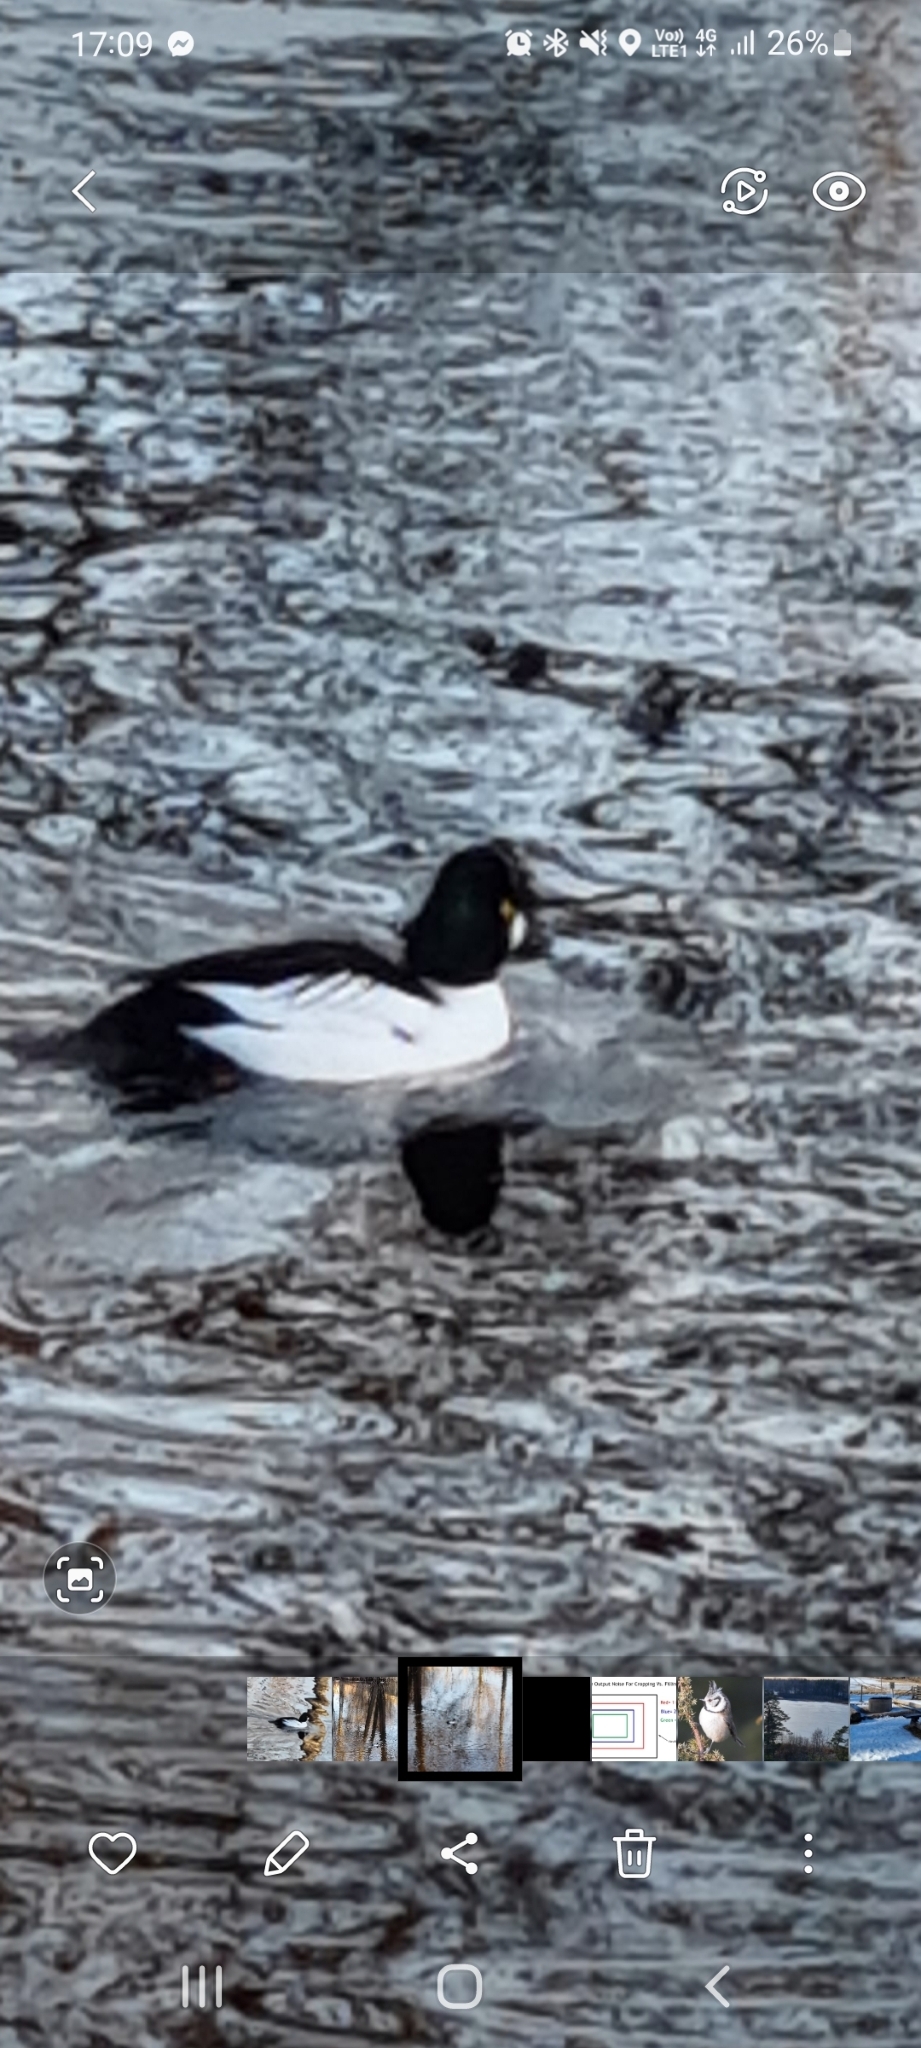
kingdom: Animalia
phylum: Chordata
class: Aves
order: Anseriformes
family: Anatidae
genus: Bucephala
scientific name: Bucephala clangula
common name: Common goldeneye
